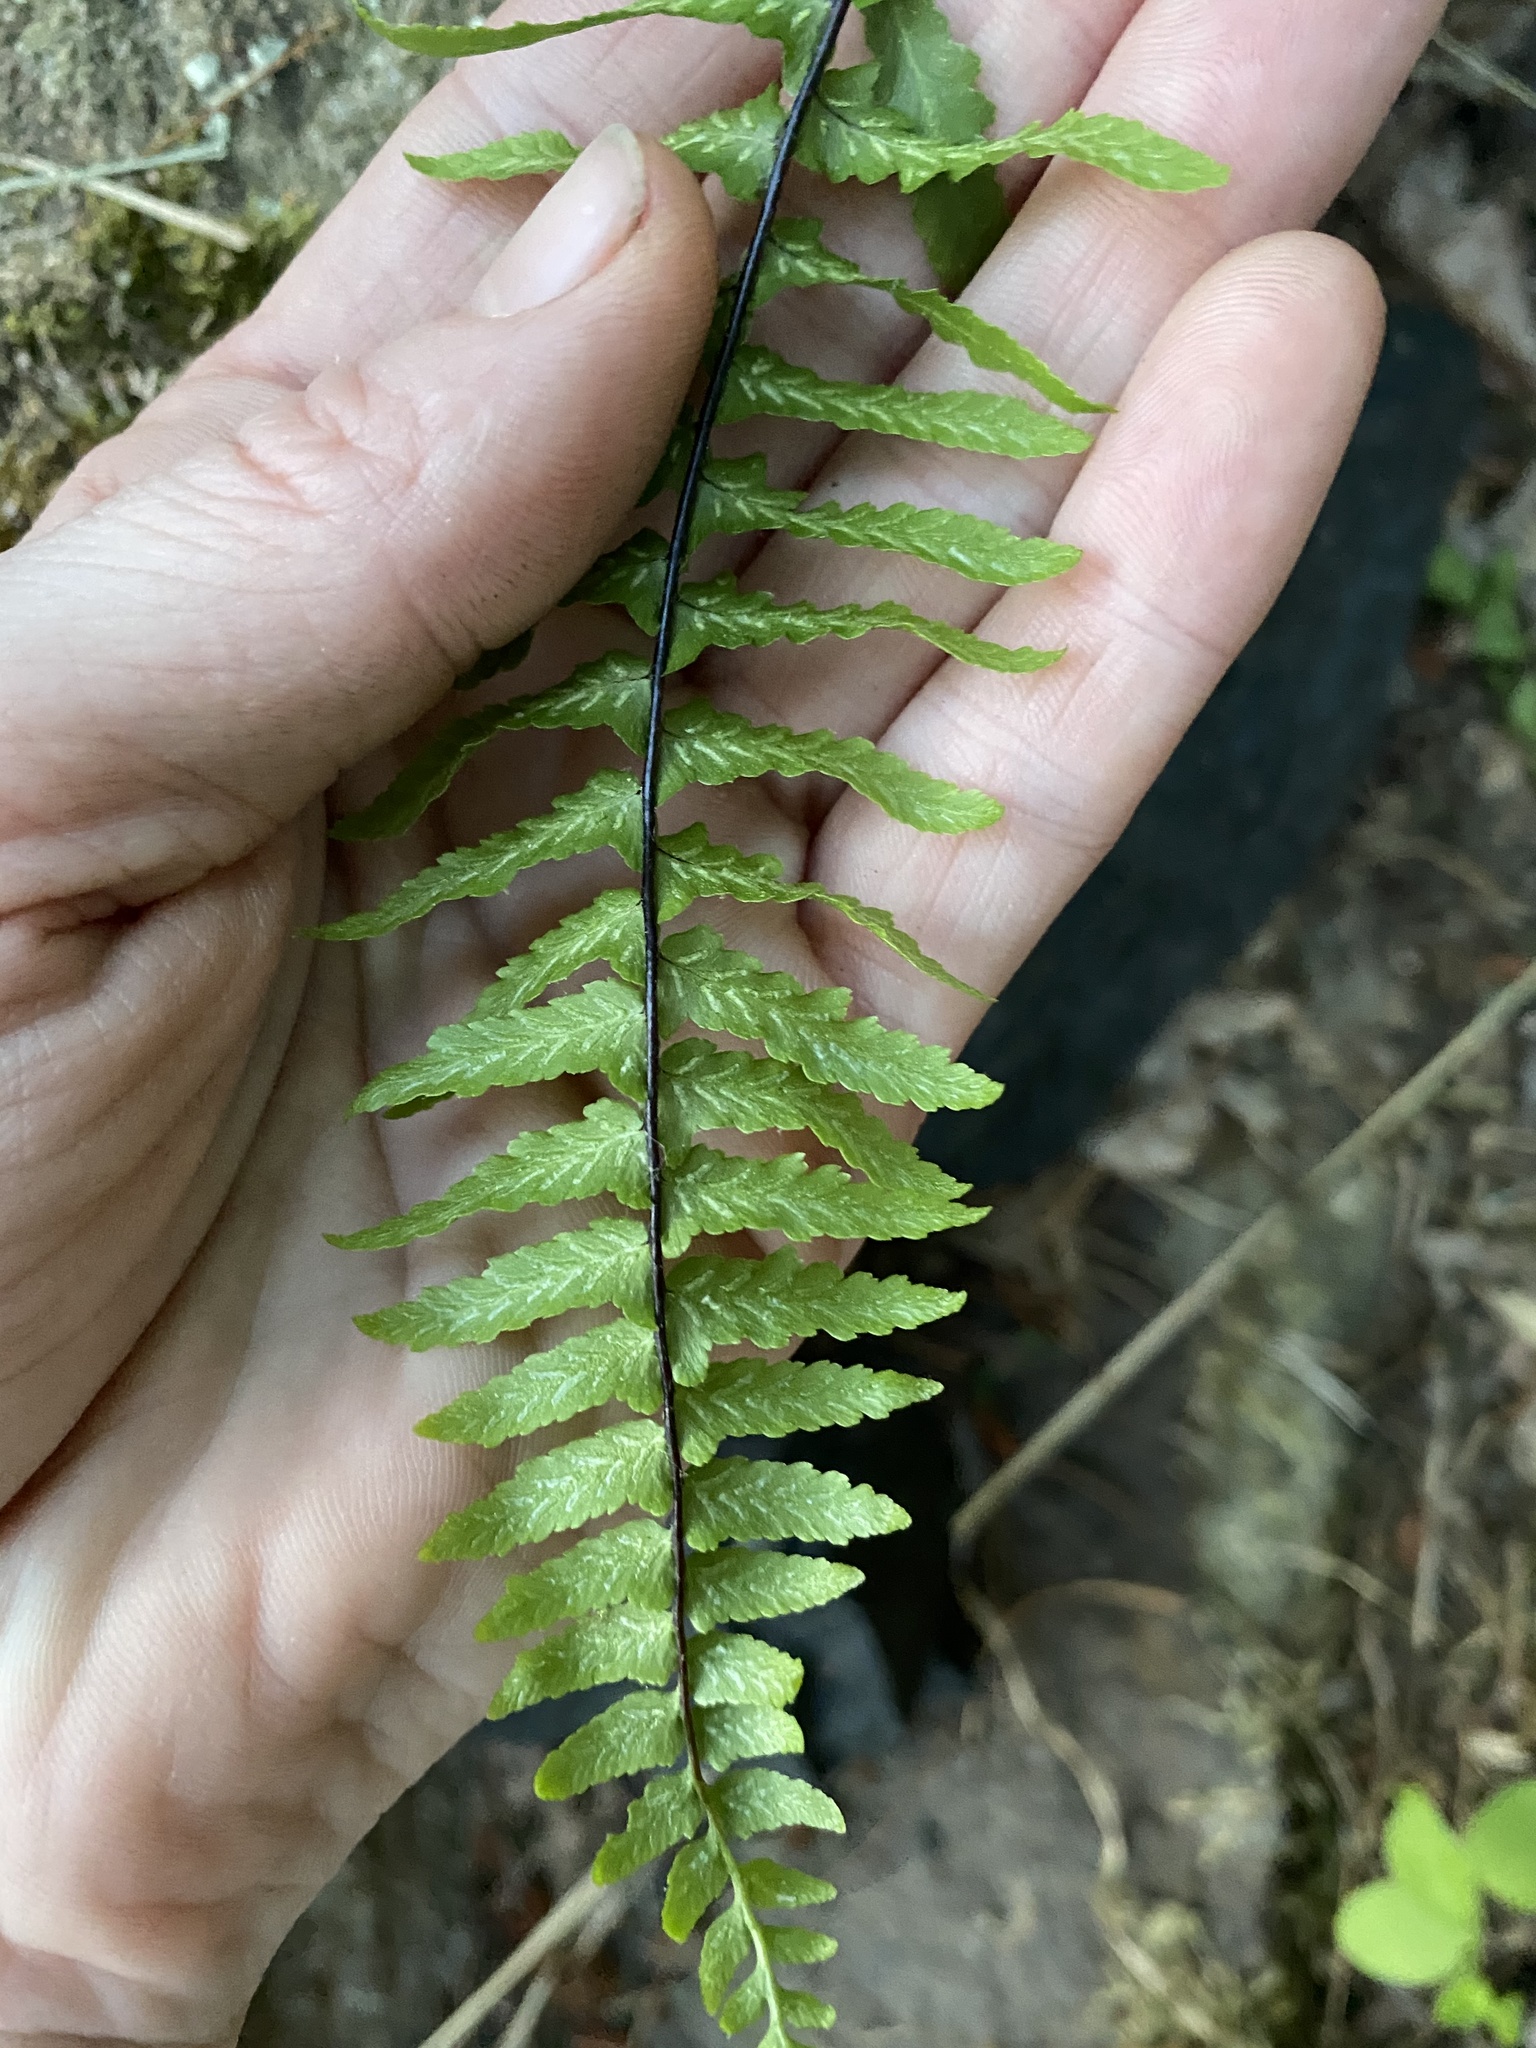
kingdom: Plantae
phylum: Tracheophyta
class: Polypodiopsida
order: Polypodiales
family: Aspleniaceae
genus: Asplenium
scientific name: Asplenium platyneuron
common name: Ebony spleenwort
